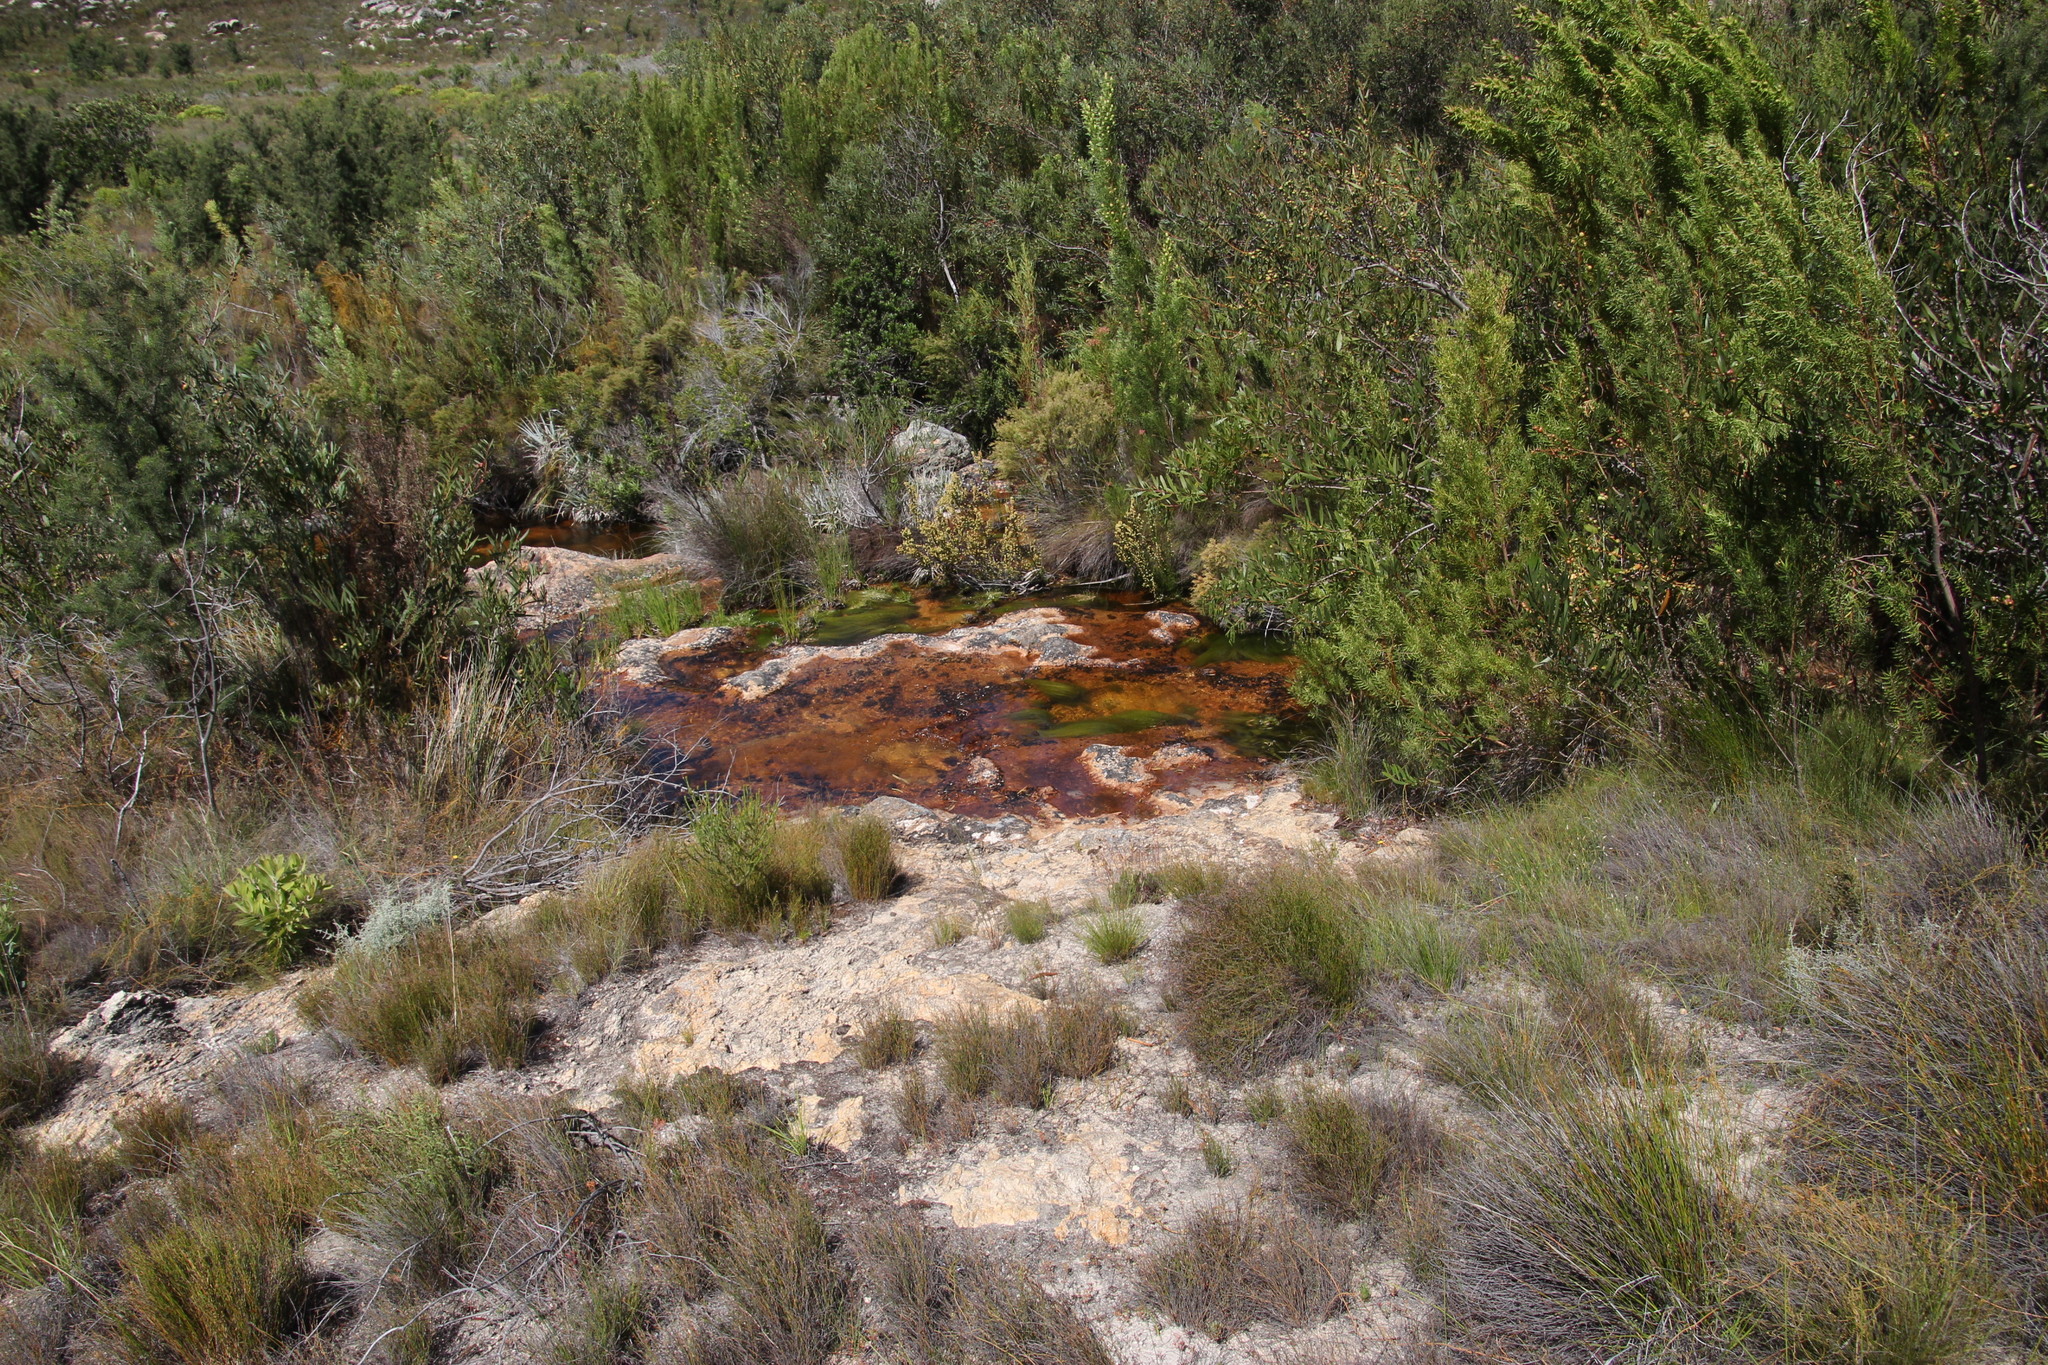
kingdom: Plantae
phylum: Tracheophyta
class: Liliopsida
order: Poales
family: Cyperaceae
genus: Isolepis
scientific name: Isolepis digitata
